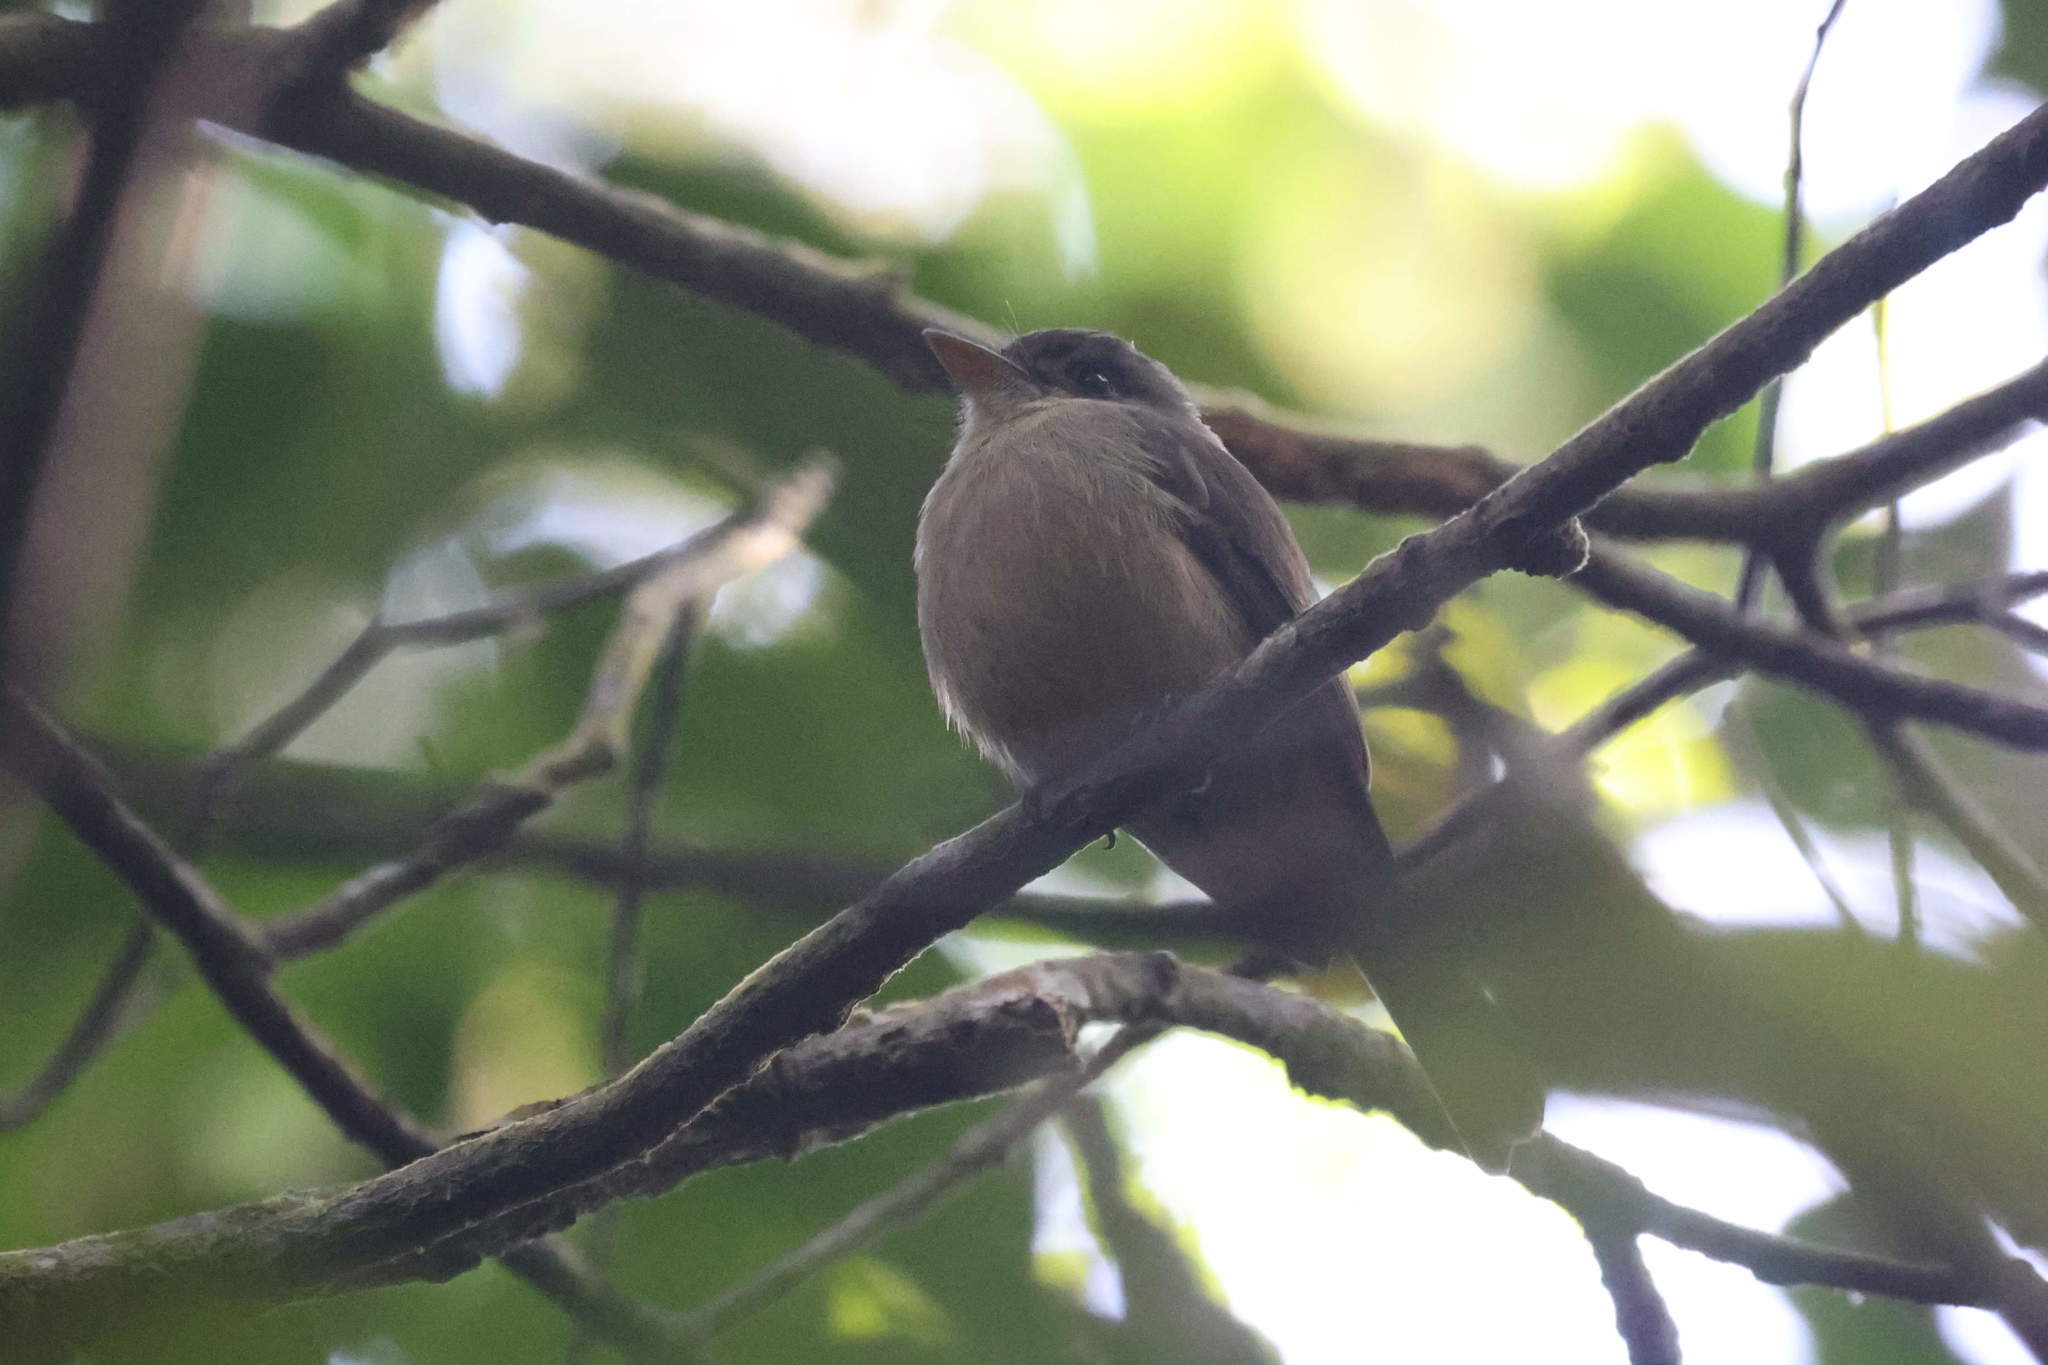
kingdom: Animalia
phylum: Chordata
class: Aves
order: Passeriformes
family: Tyrannidae
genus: Contopus
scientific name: Contopus latirostris
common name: Lesser antillean pewee
